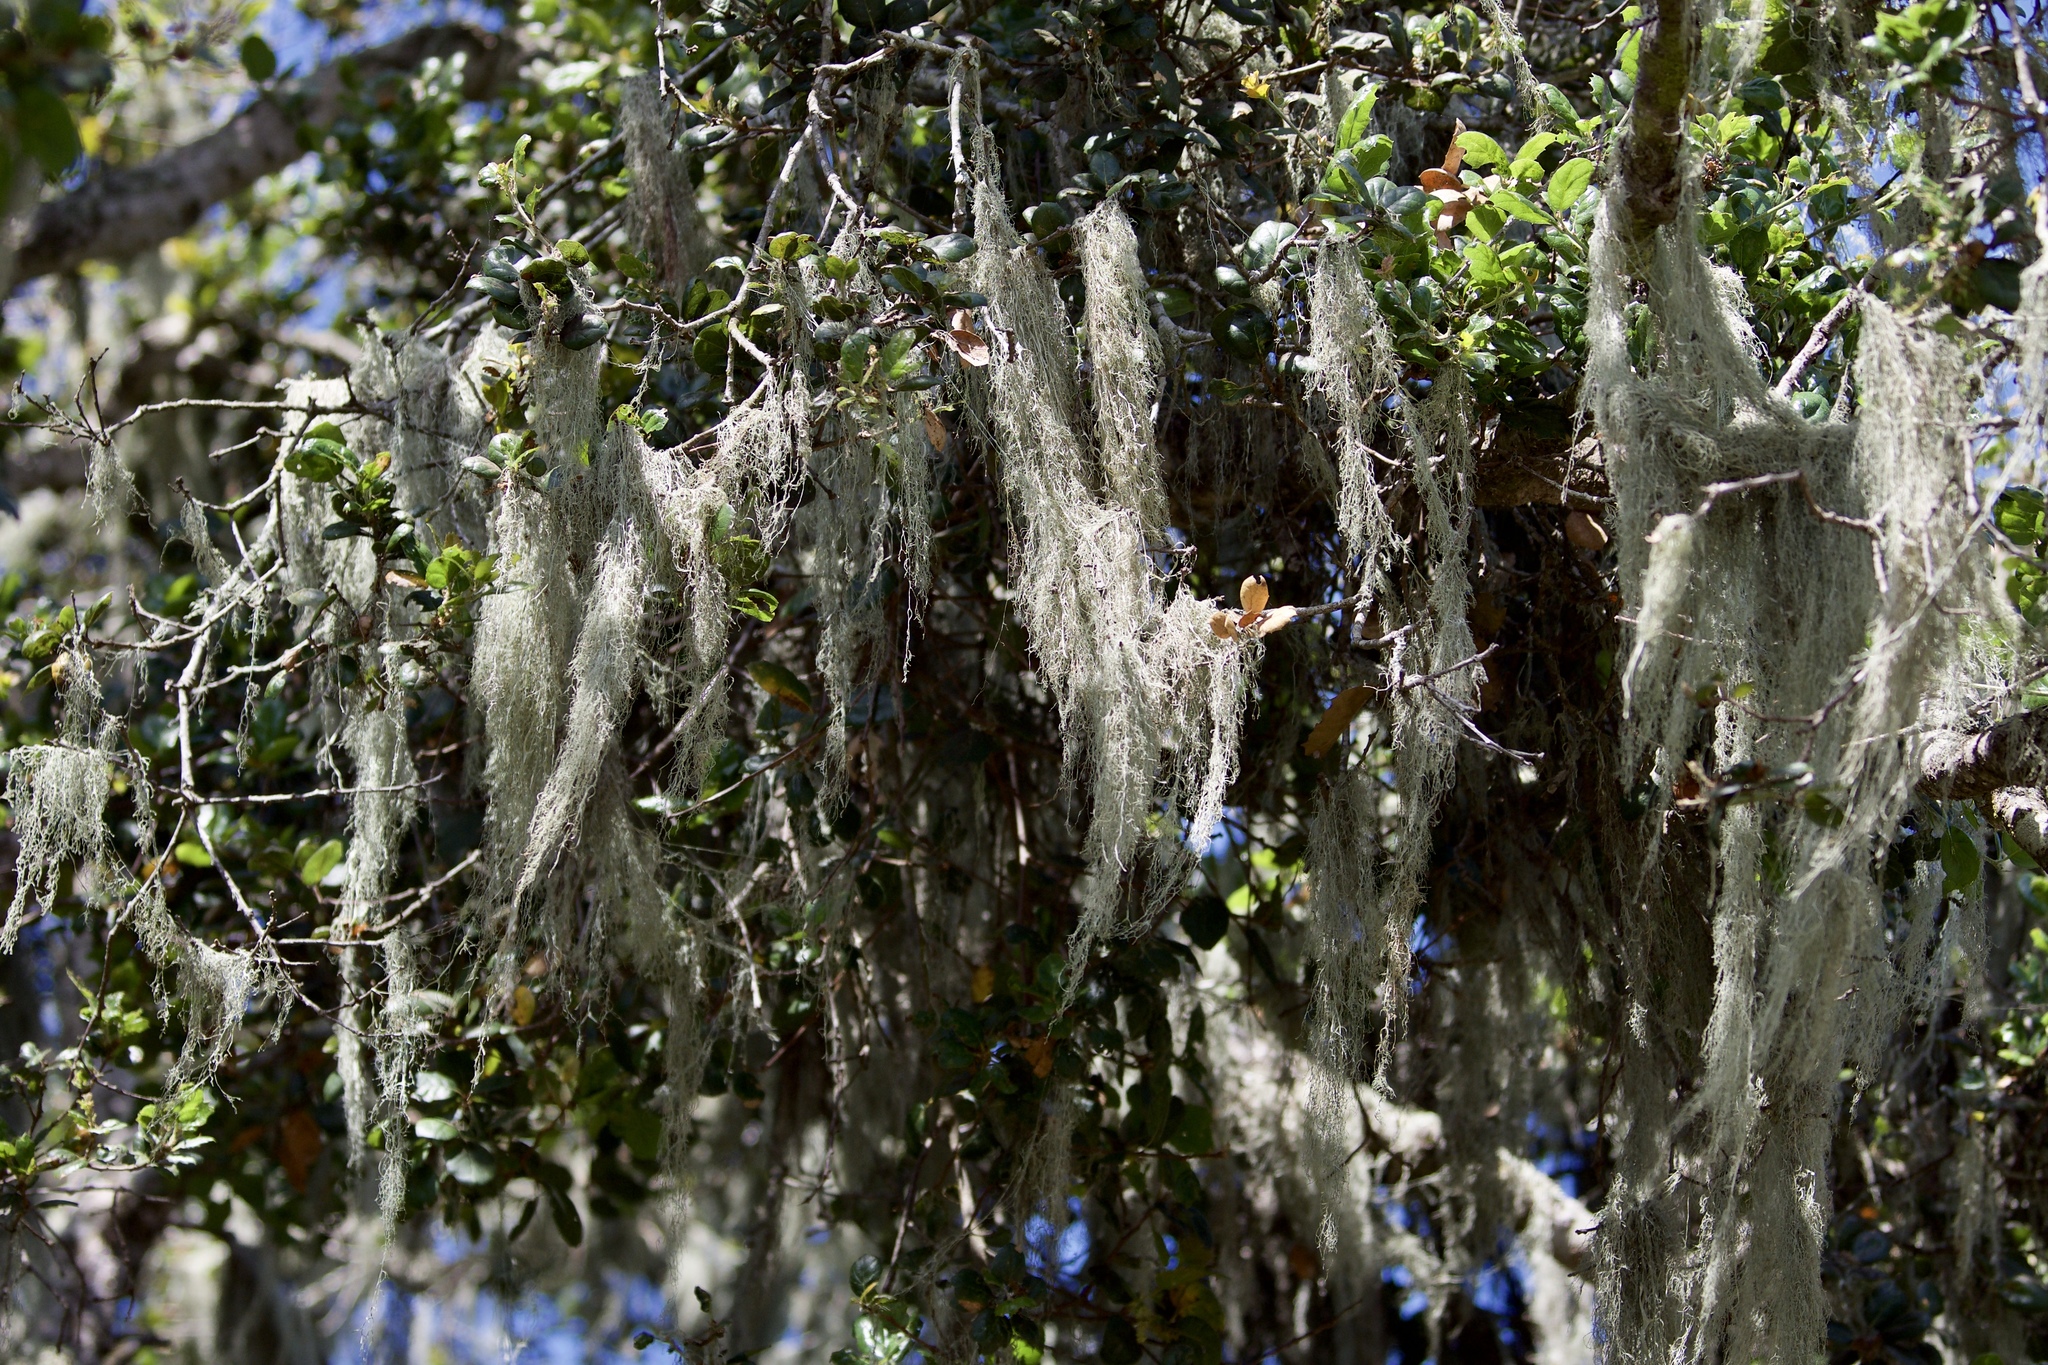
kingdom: Fungi
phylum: Ascomycota
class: Lecanoromycetes
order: Lecanorales
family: Ramalinaceae
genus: Ramalina
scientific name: Ramalina menziesii
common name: Lace lichen
